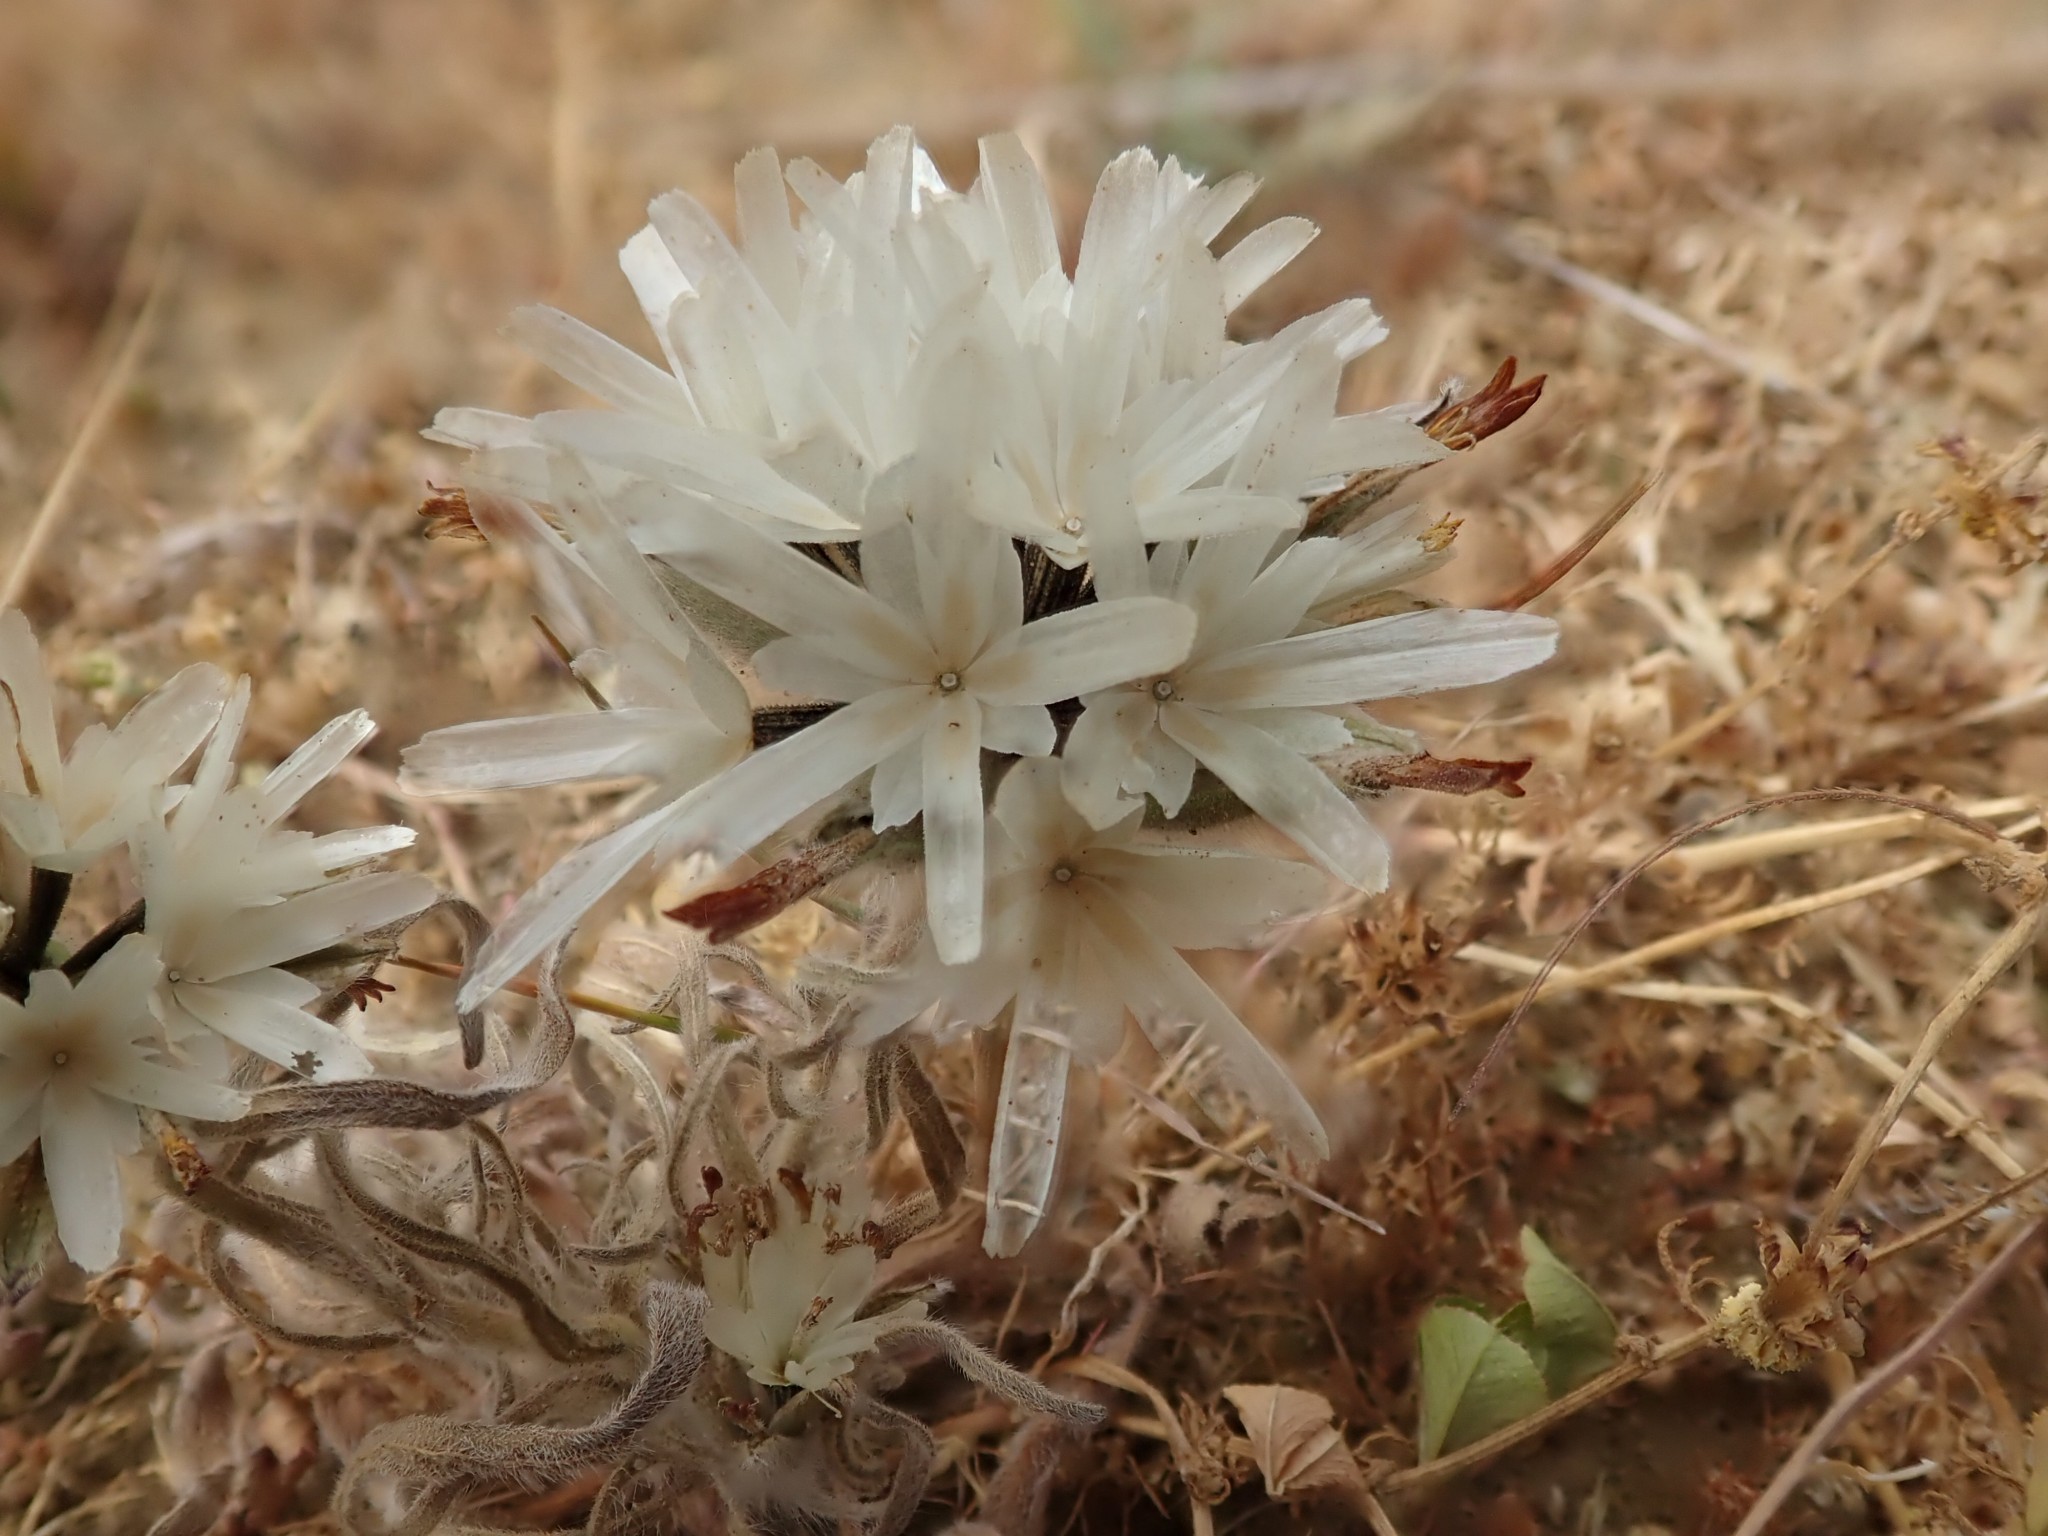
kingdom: Plantae
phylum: Tracheophyta
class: Magnoliopsida
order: Asterales
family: Asteraceae
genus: Achyrachaena
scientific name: Achyrachaena mollis
